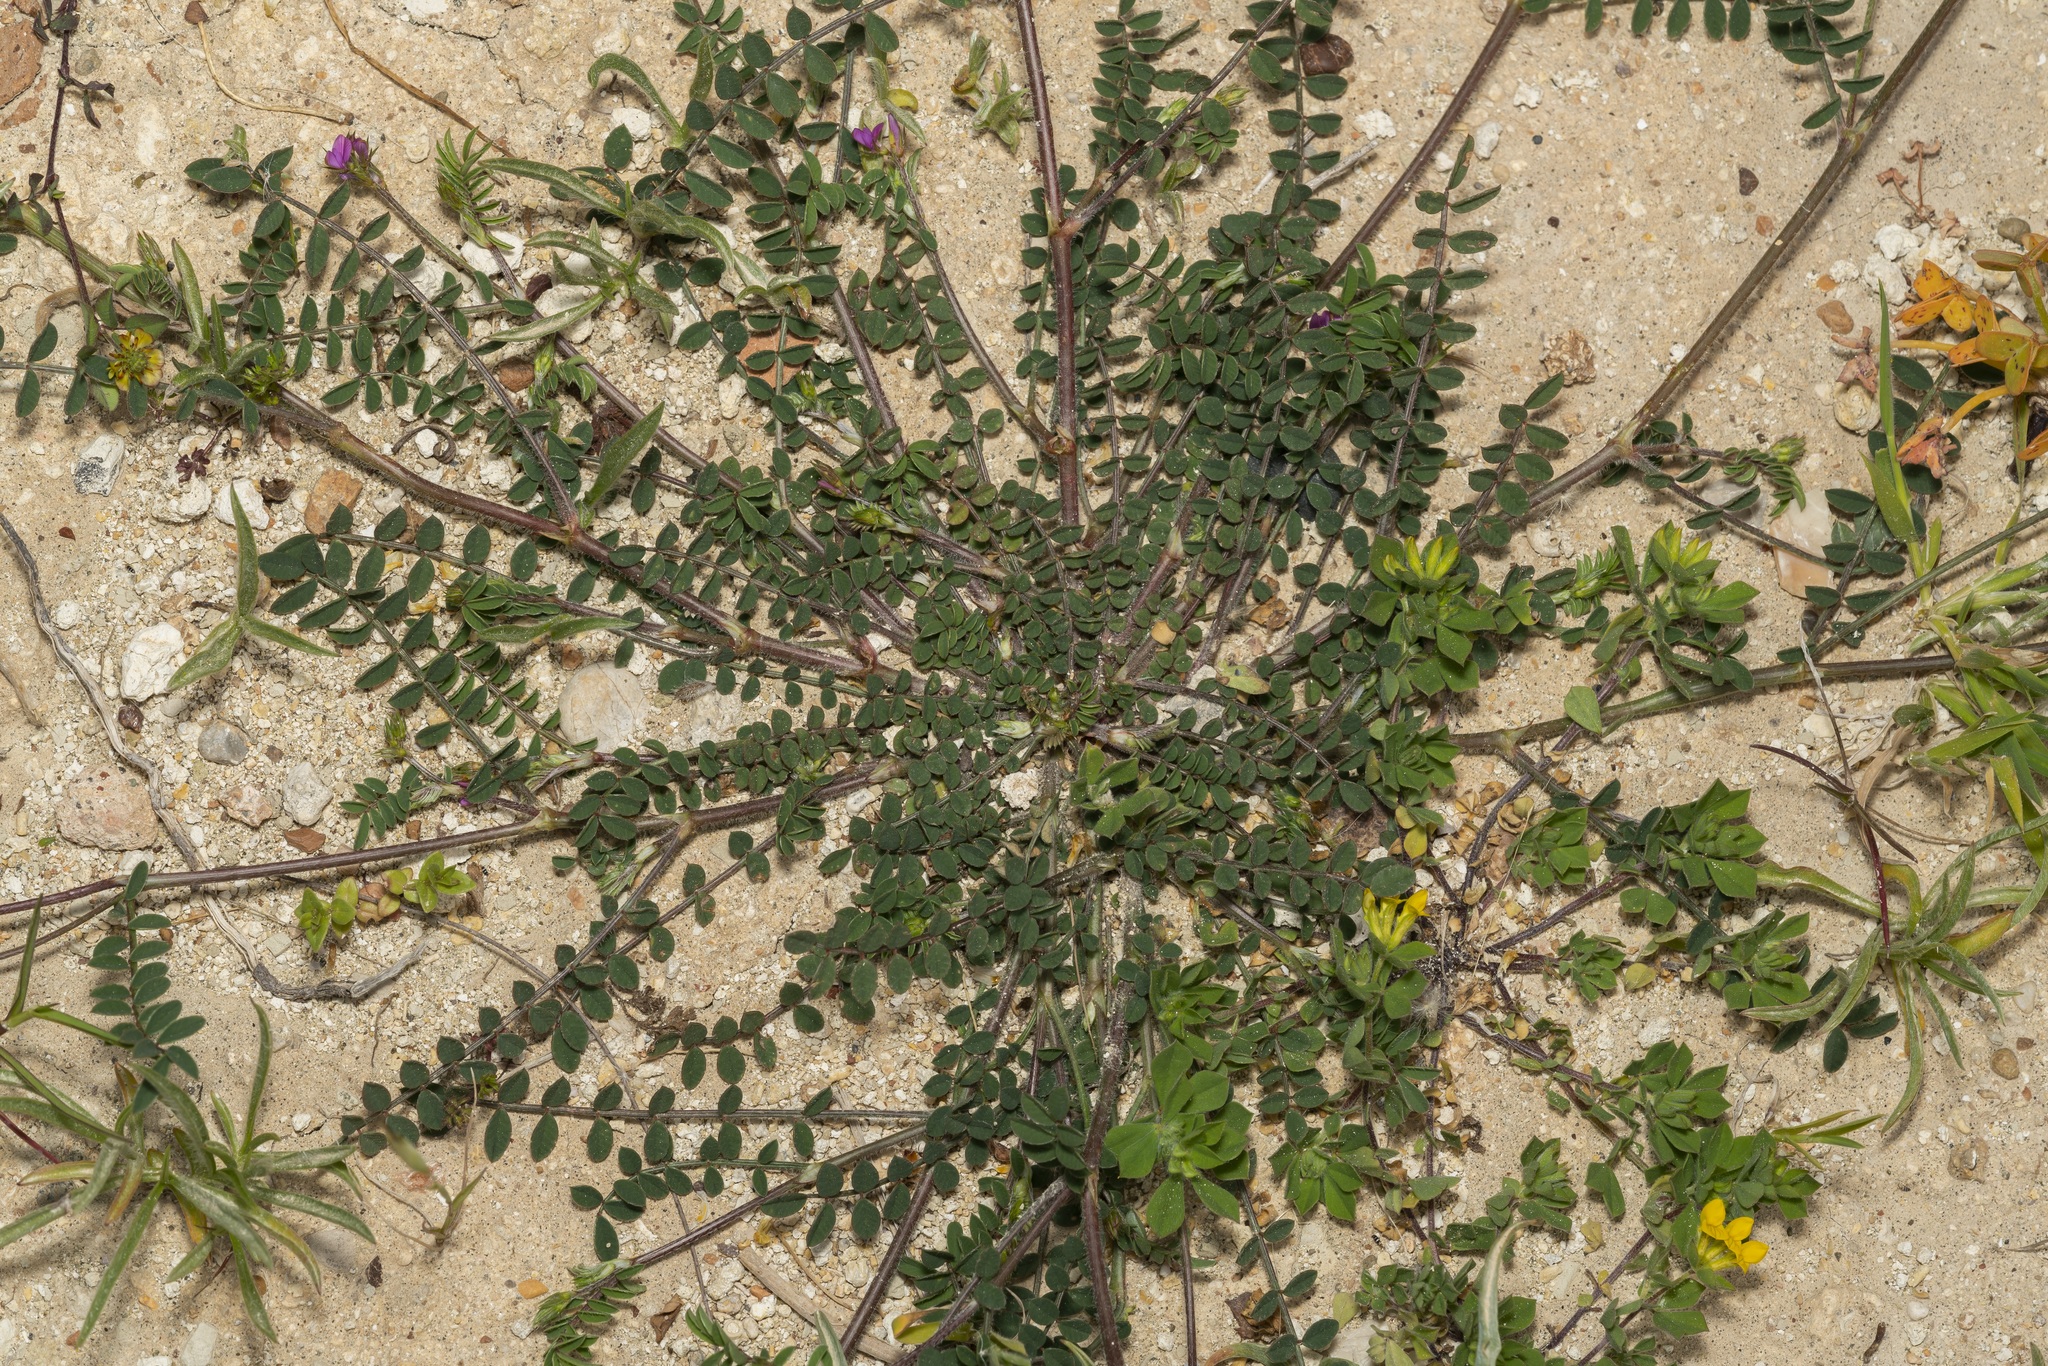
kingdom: Plantae
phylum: Tracheophyta
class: Magnoliopsida
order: Fabales
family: Fabaceae
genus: Onobrychis
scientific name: Onobrychis caput-galli
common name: Cockscomb sainfoin
